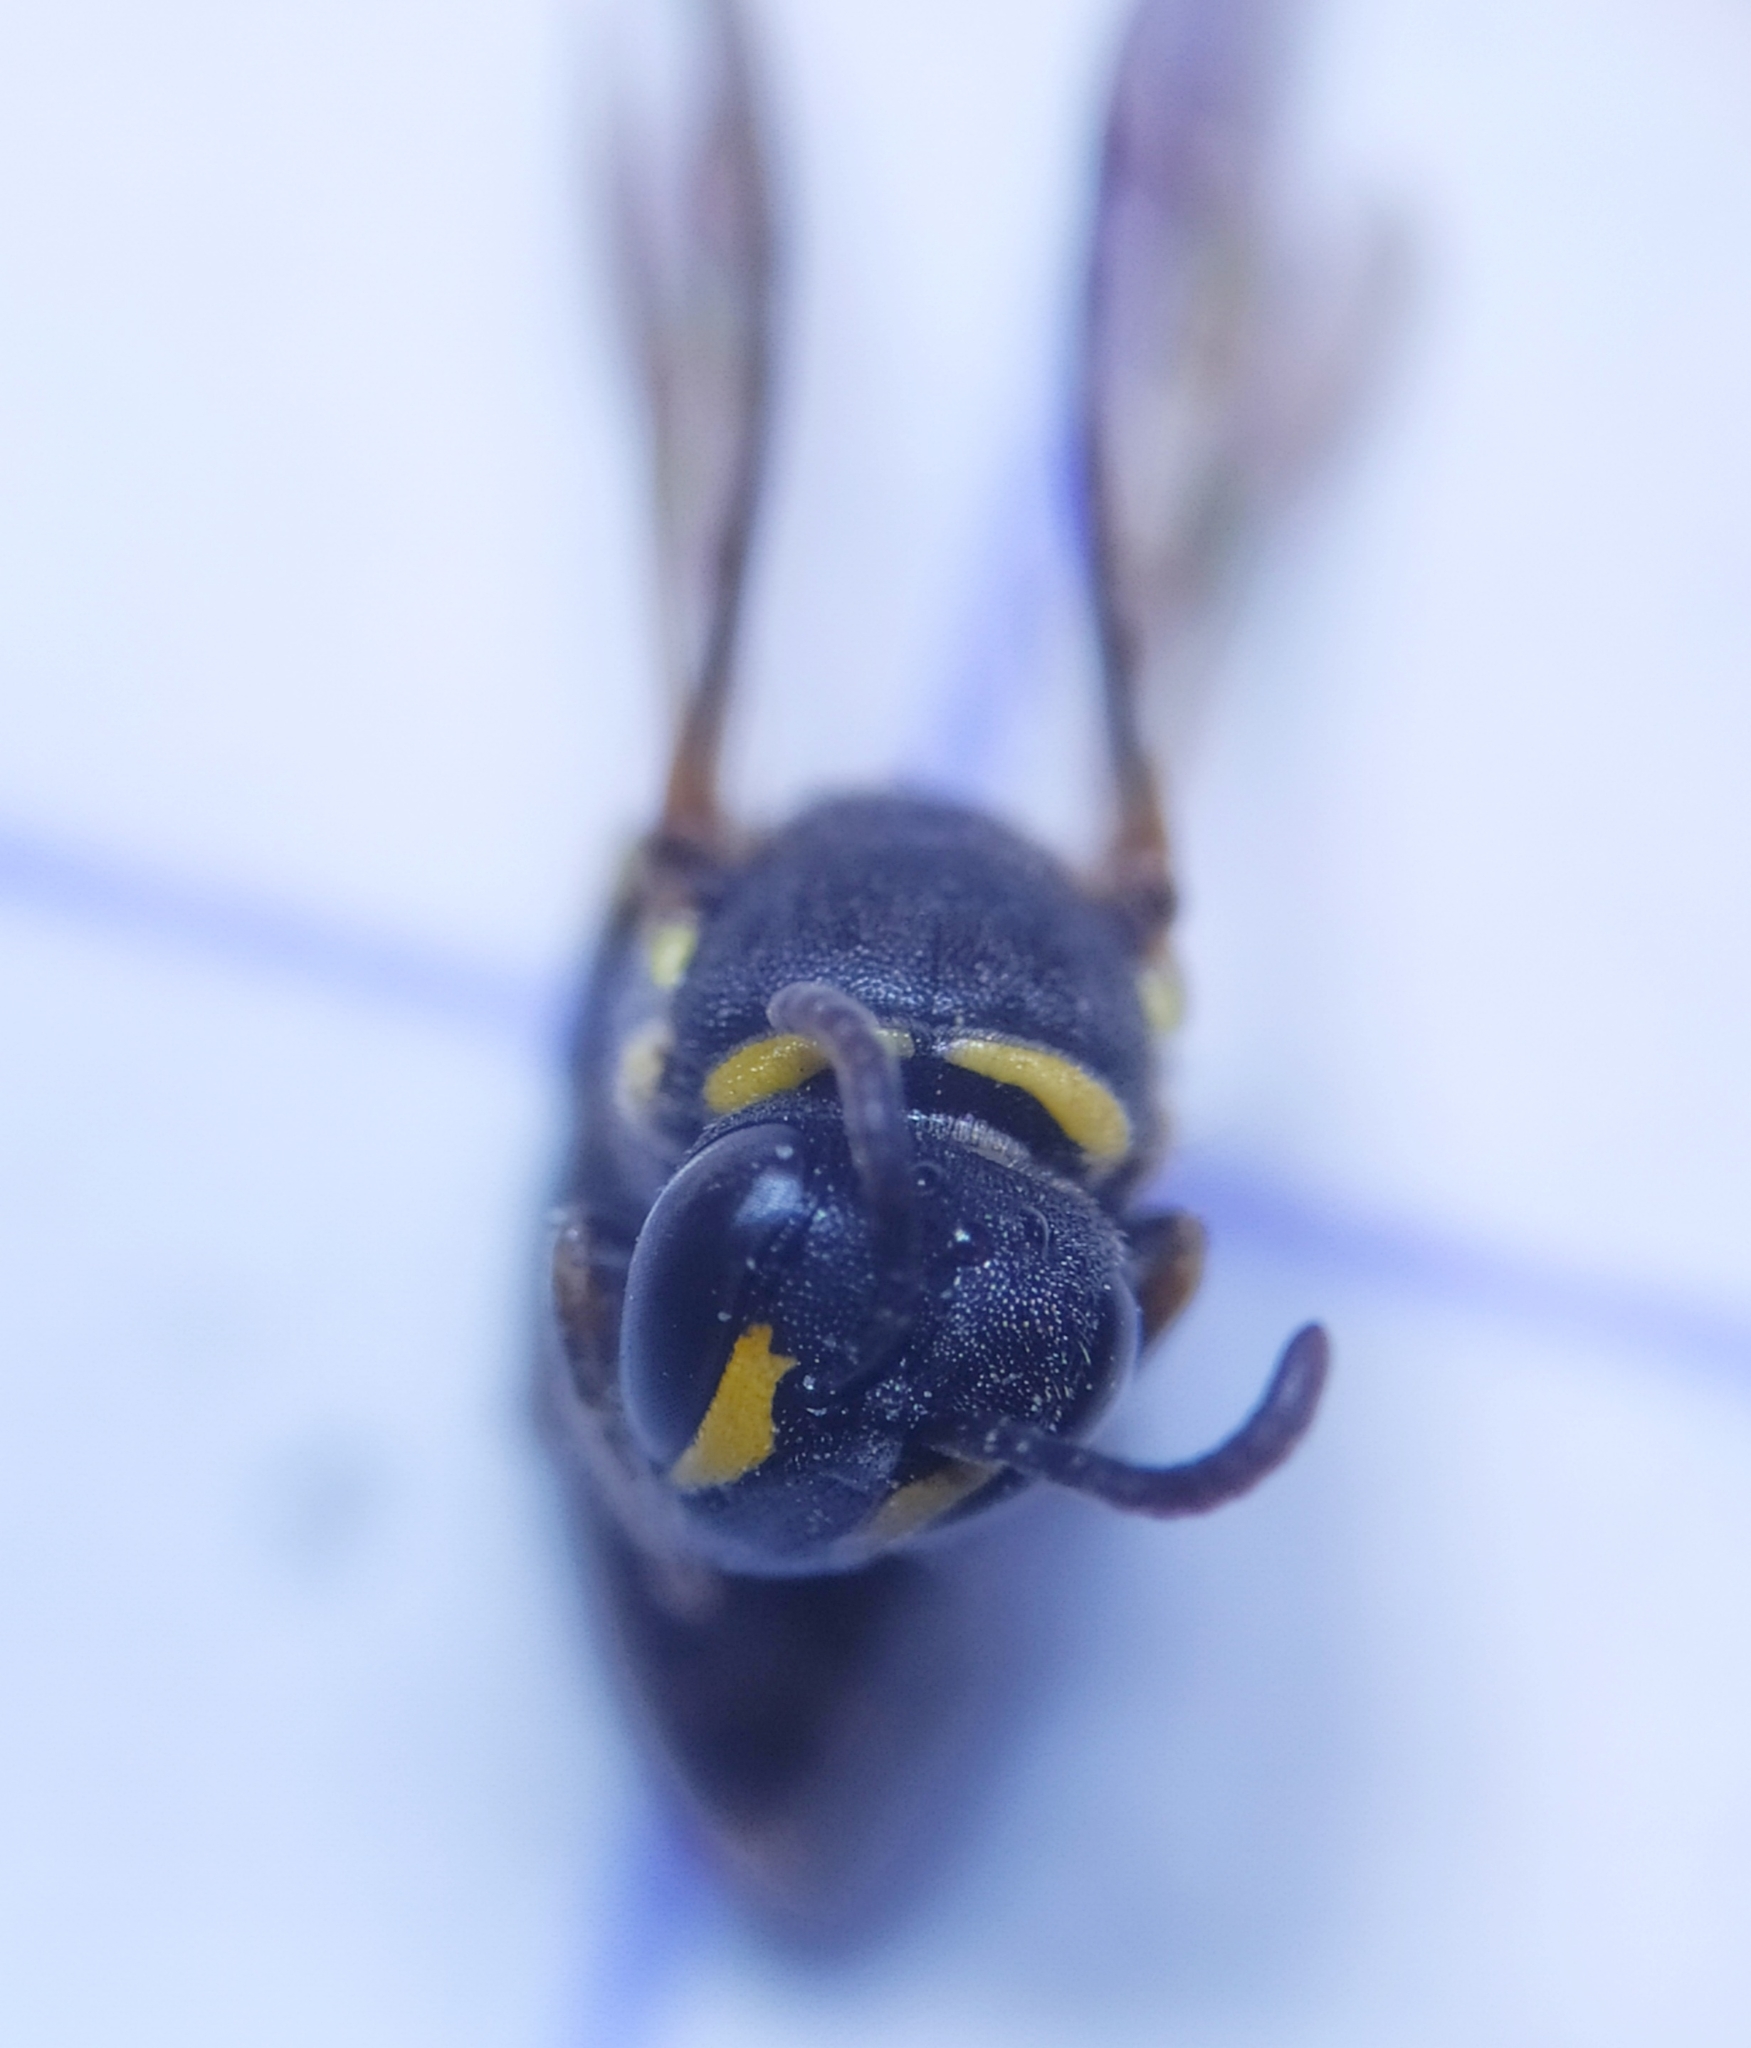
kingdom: Animalia
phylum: Arthropoda
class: Insecta
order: Hymenoptera
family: Colletidae
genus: Hylaeus
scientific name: Hylaeus communis
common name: Common yellow-face bee
